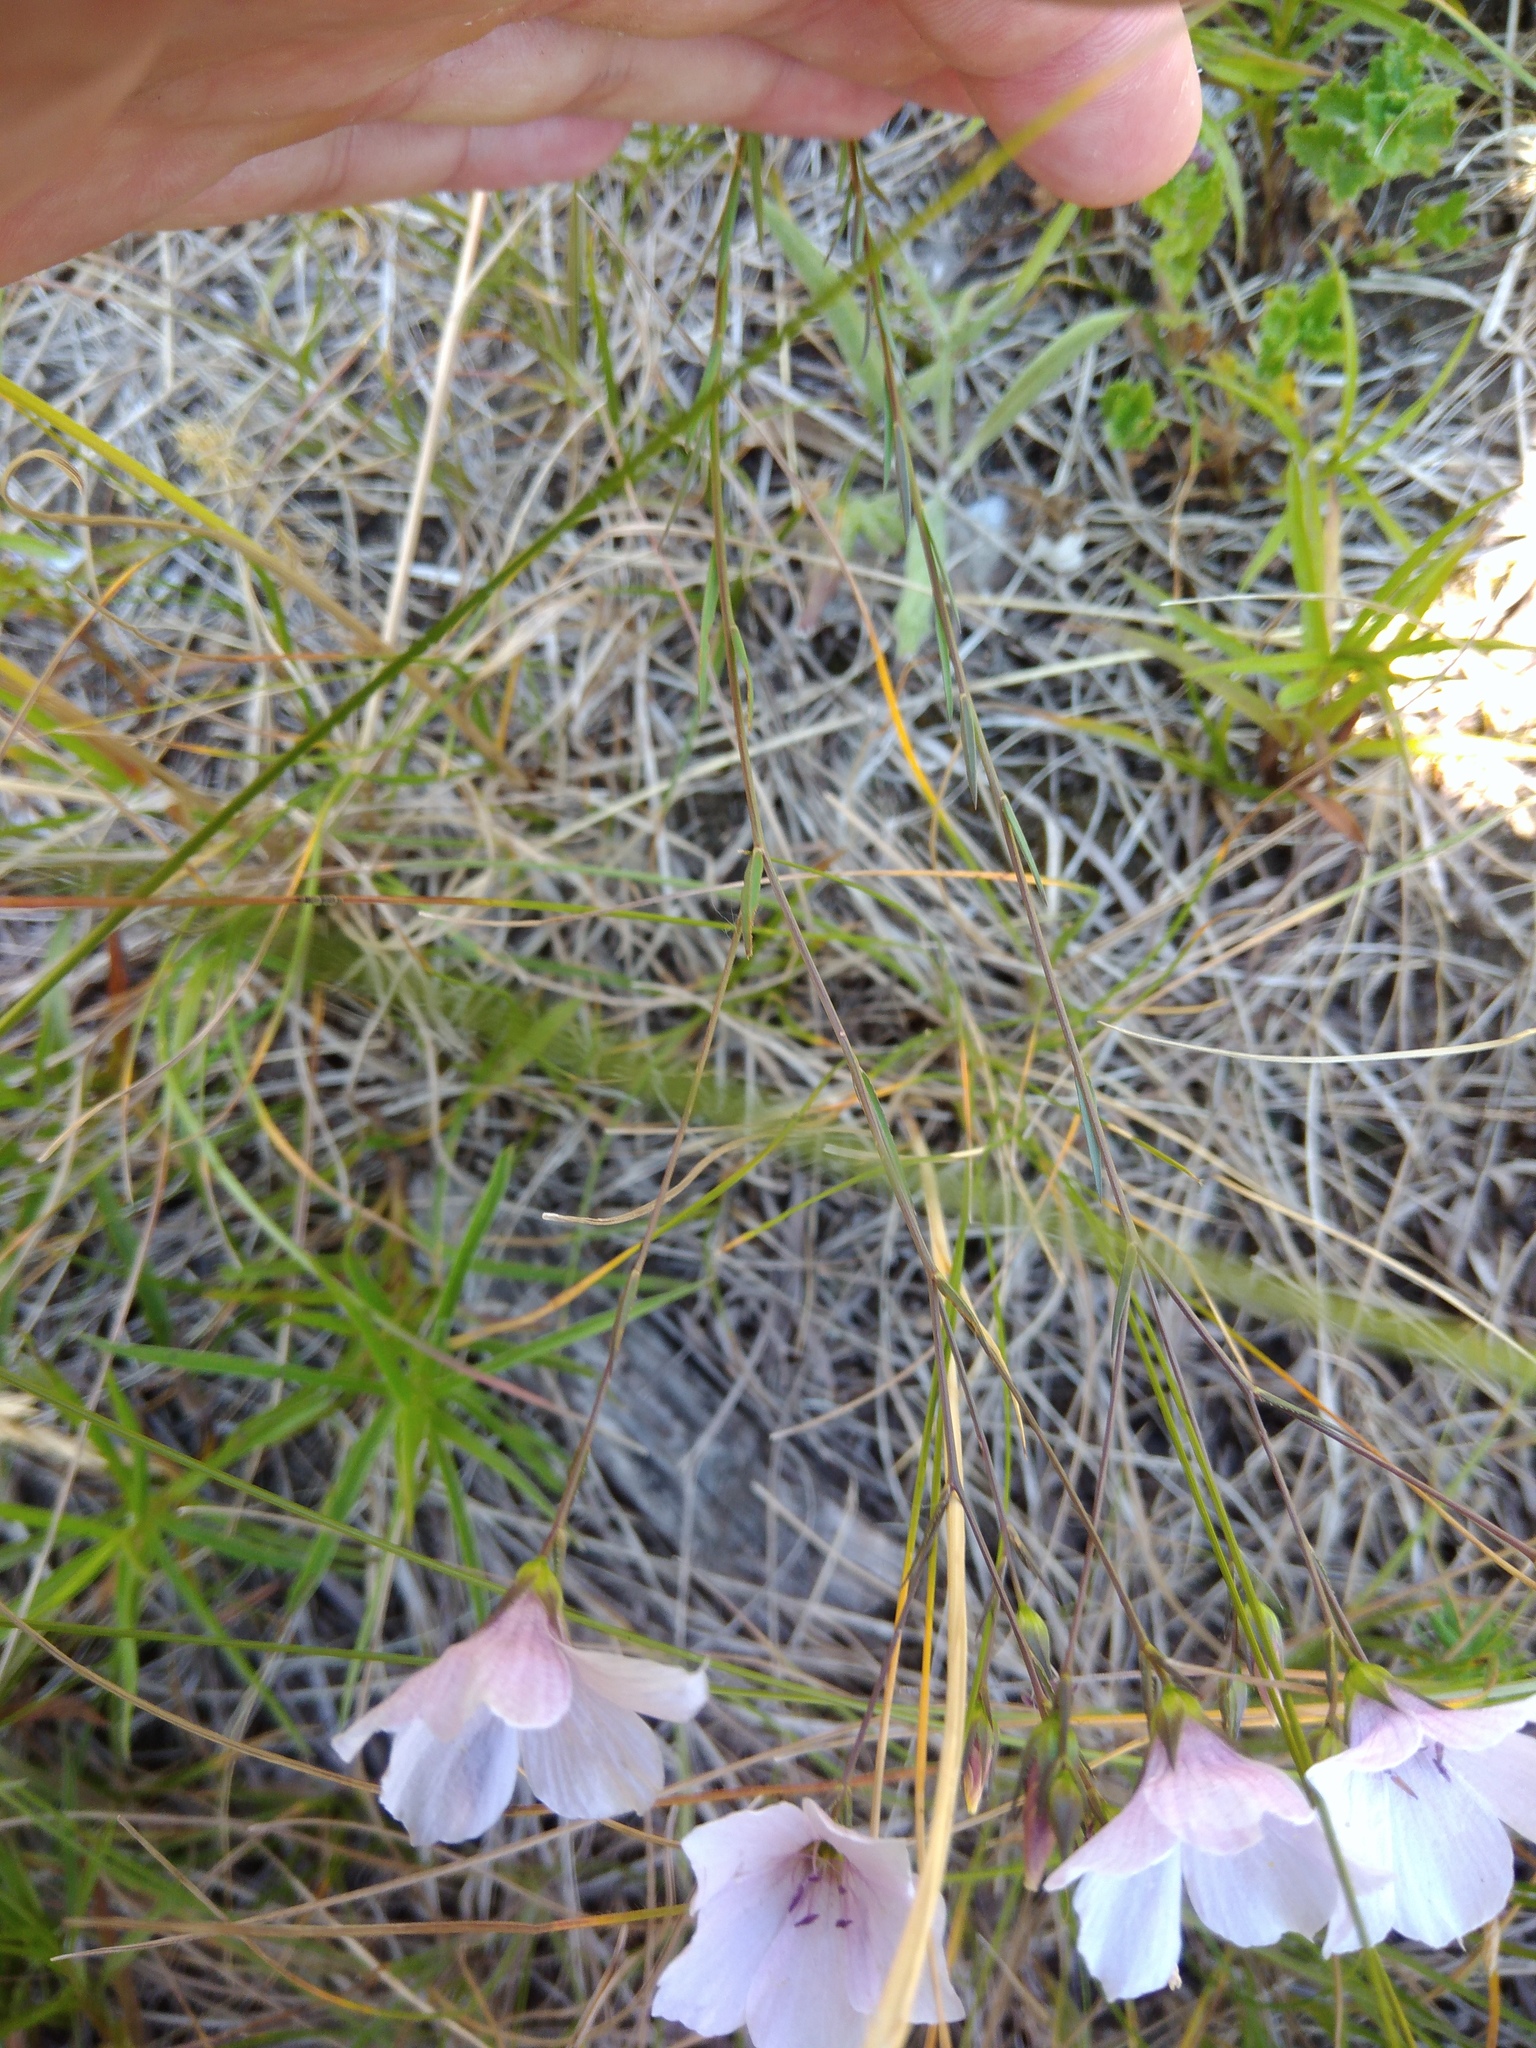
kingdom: Plantae
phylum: Tracheophyta
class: Magnoliopsida
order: Malpighiales
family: Linaceae
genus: Linum
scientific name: Linum tenuifolium
